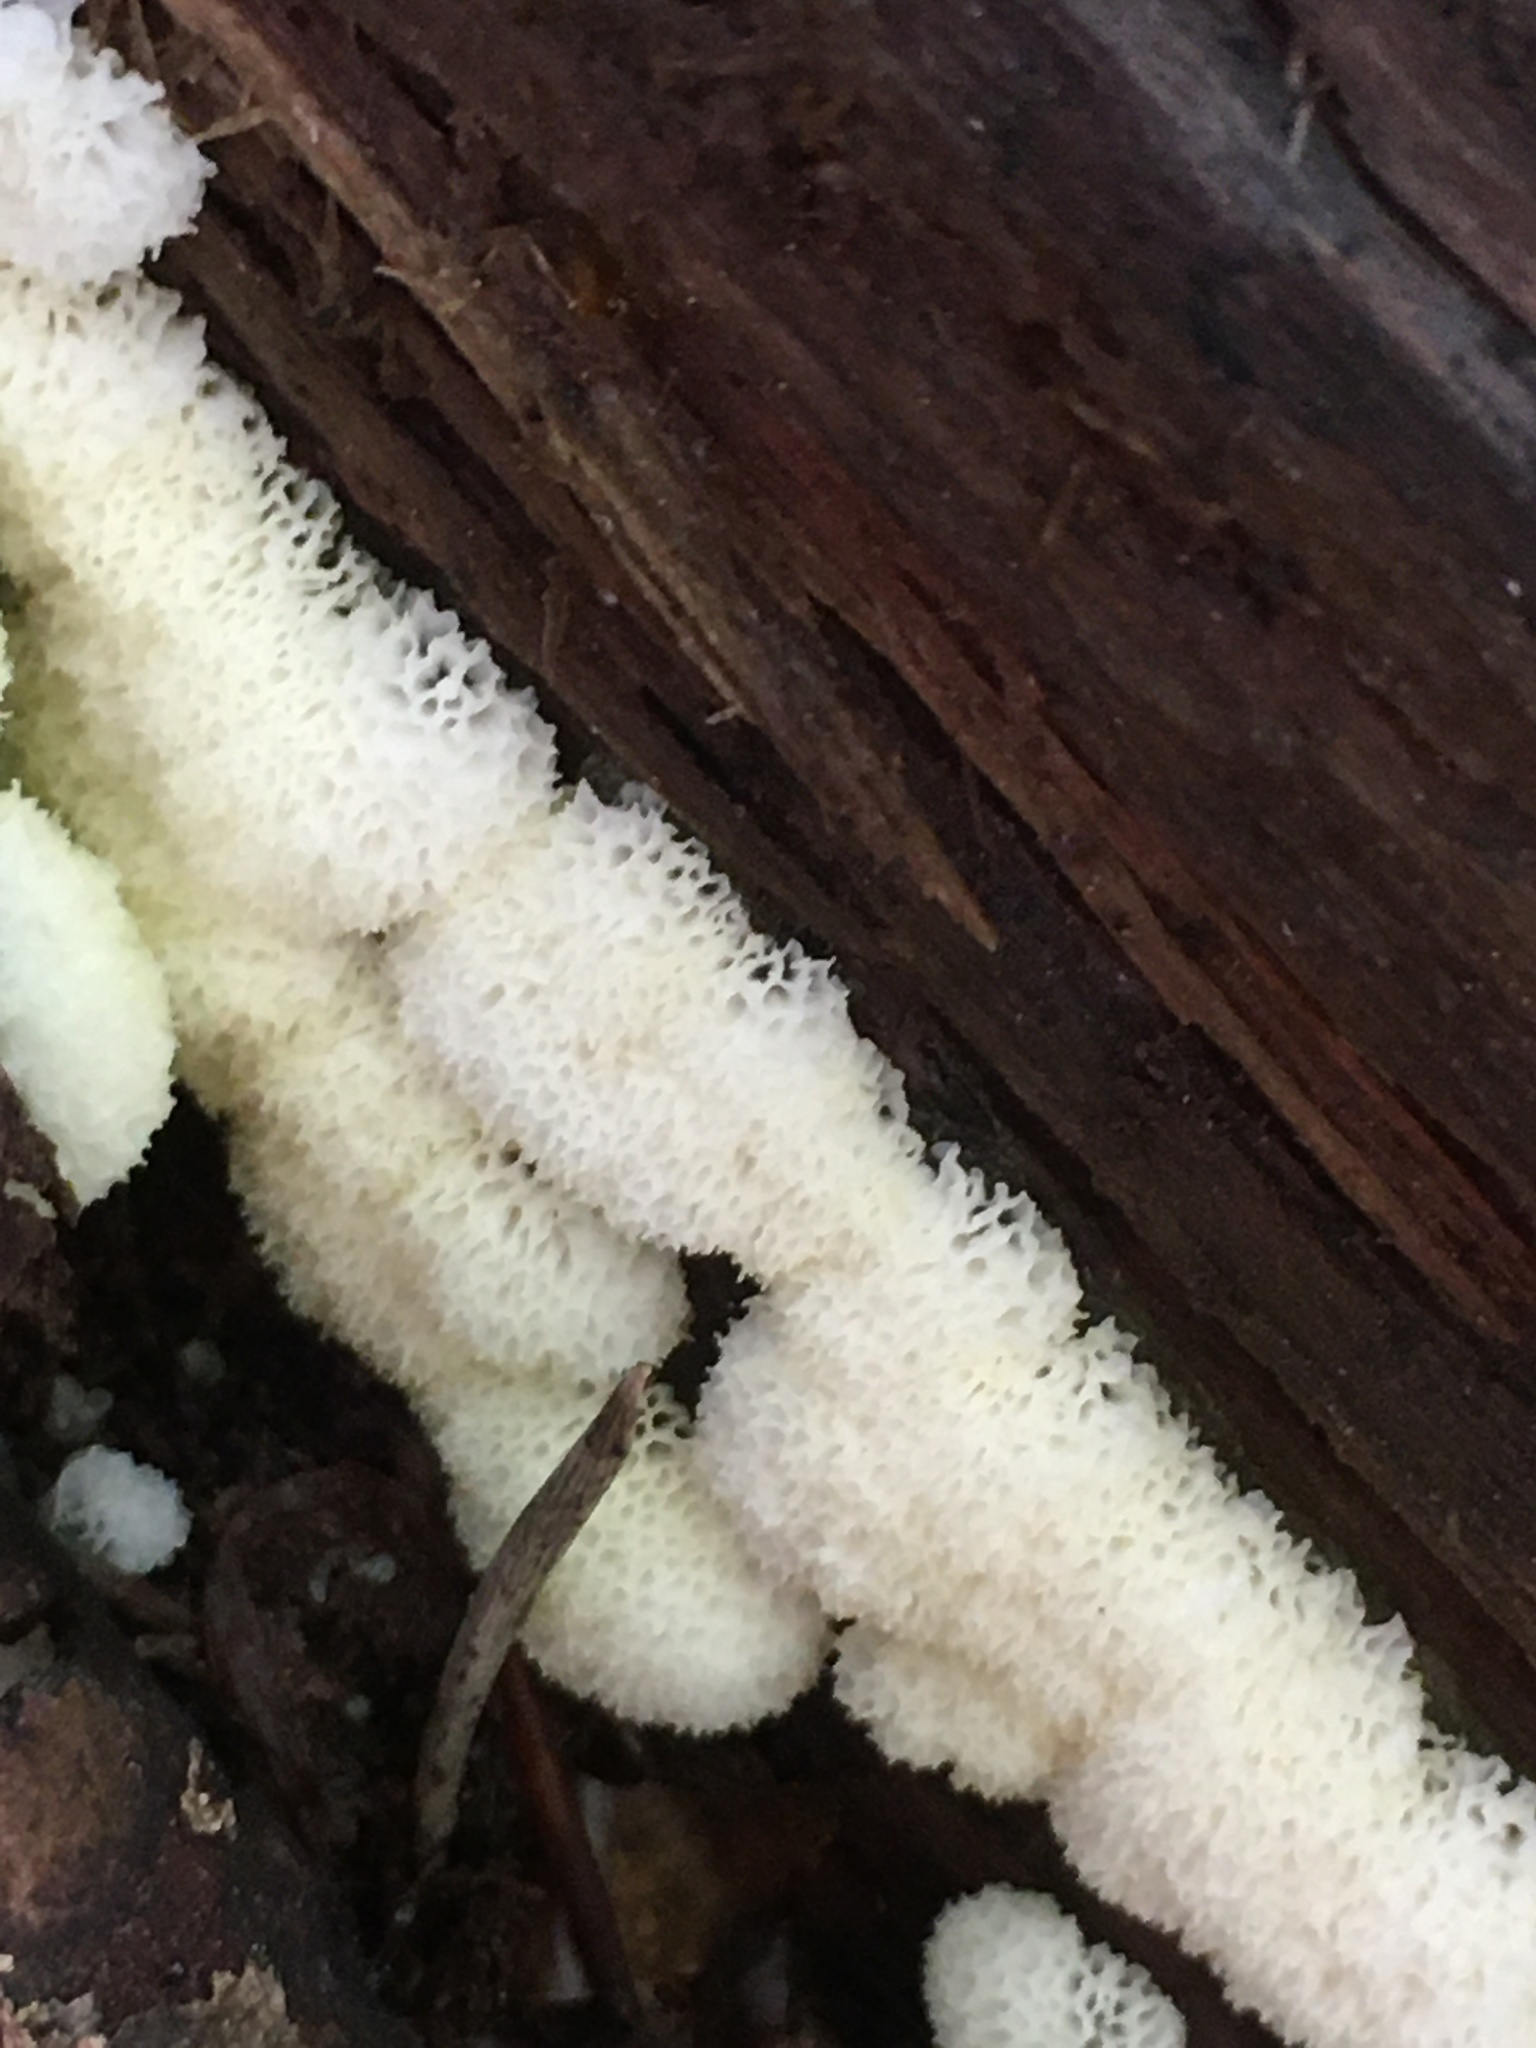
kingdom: Protozoa
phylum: Mycetozoa
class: Protosteliomycetes
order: Ceratiomyxales
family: Ceratiomyxaceae
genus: Ceratiomyxa
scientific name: Ceratiomyxa fruticulosa
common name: Honeycomb coral slime mold
